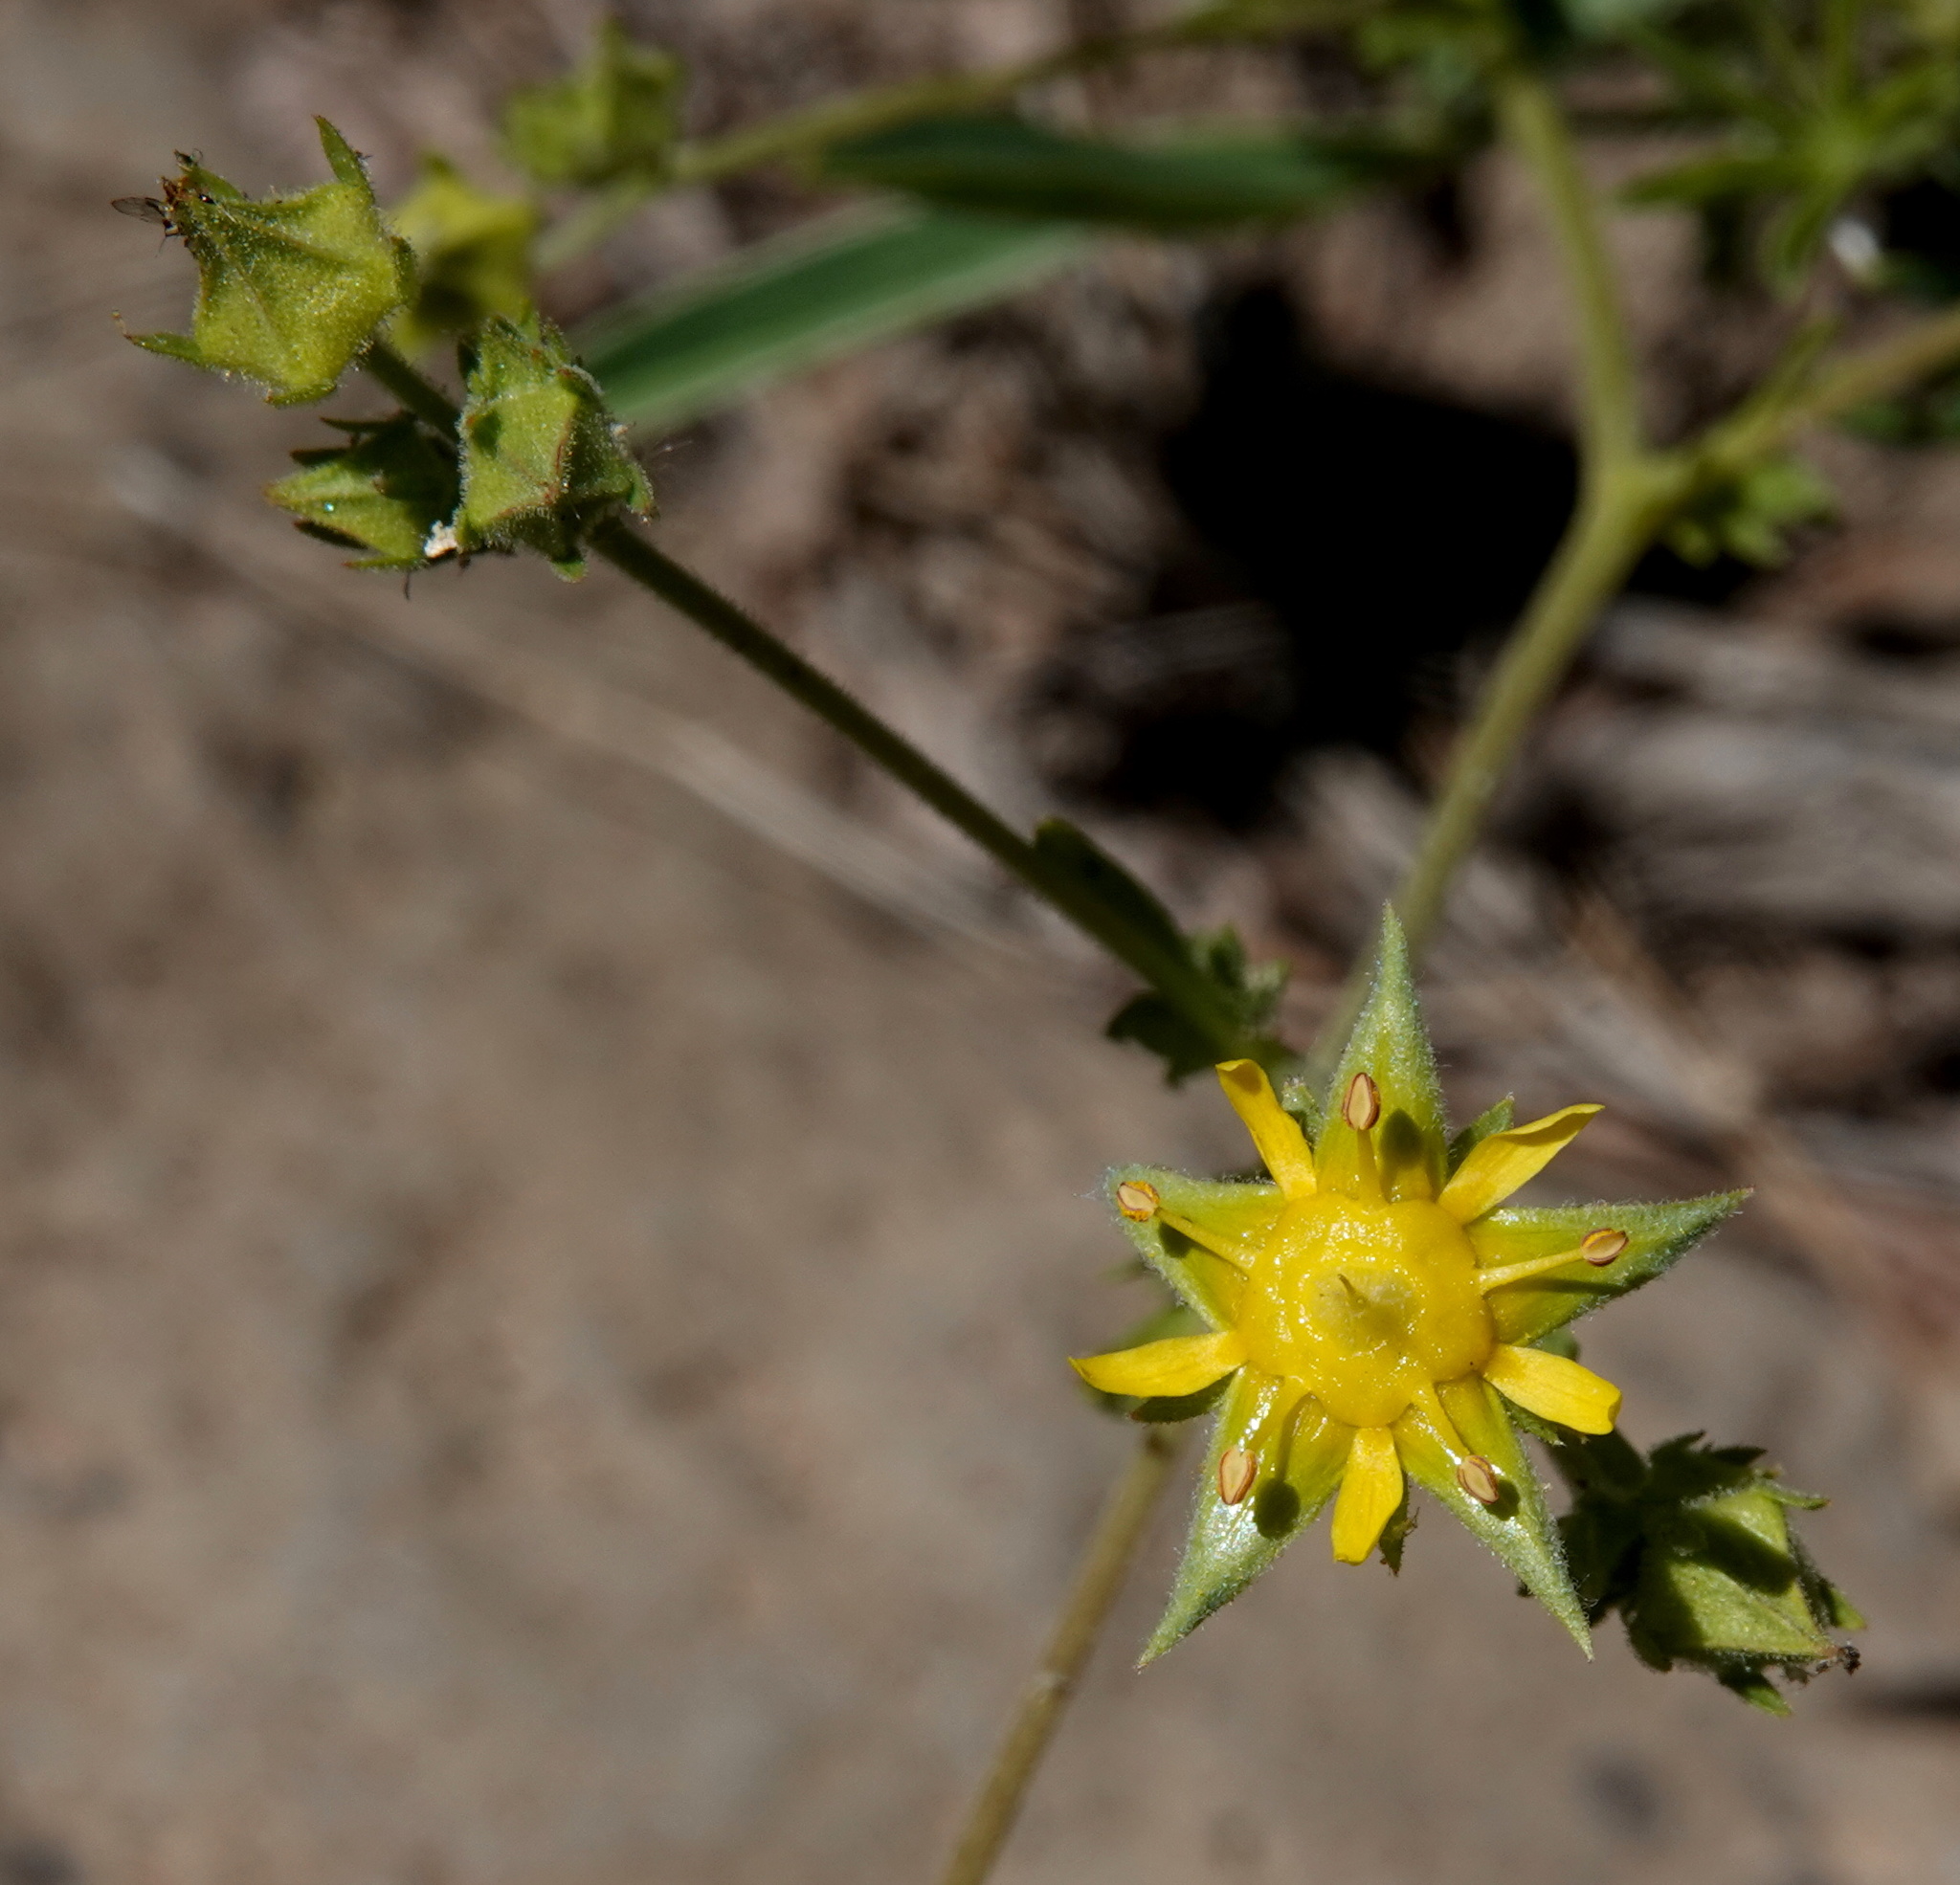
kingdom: Plantae
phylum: Tracheophyta
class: Magnoliopsida
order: Rosales
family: Rosaceae
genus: Potentilla
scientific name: Potentilla sabulosa
